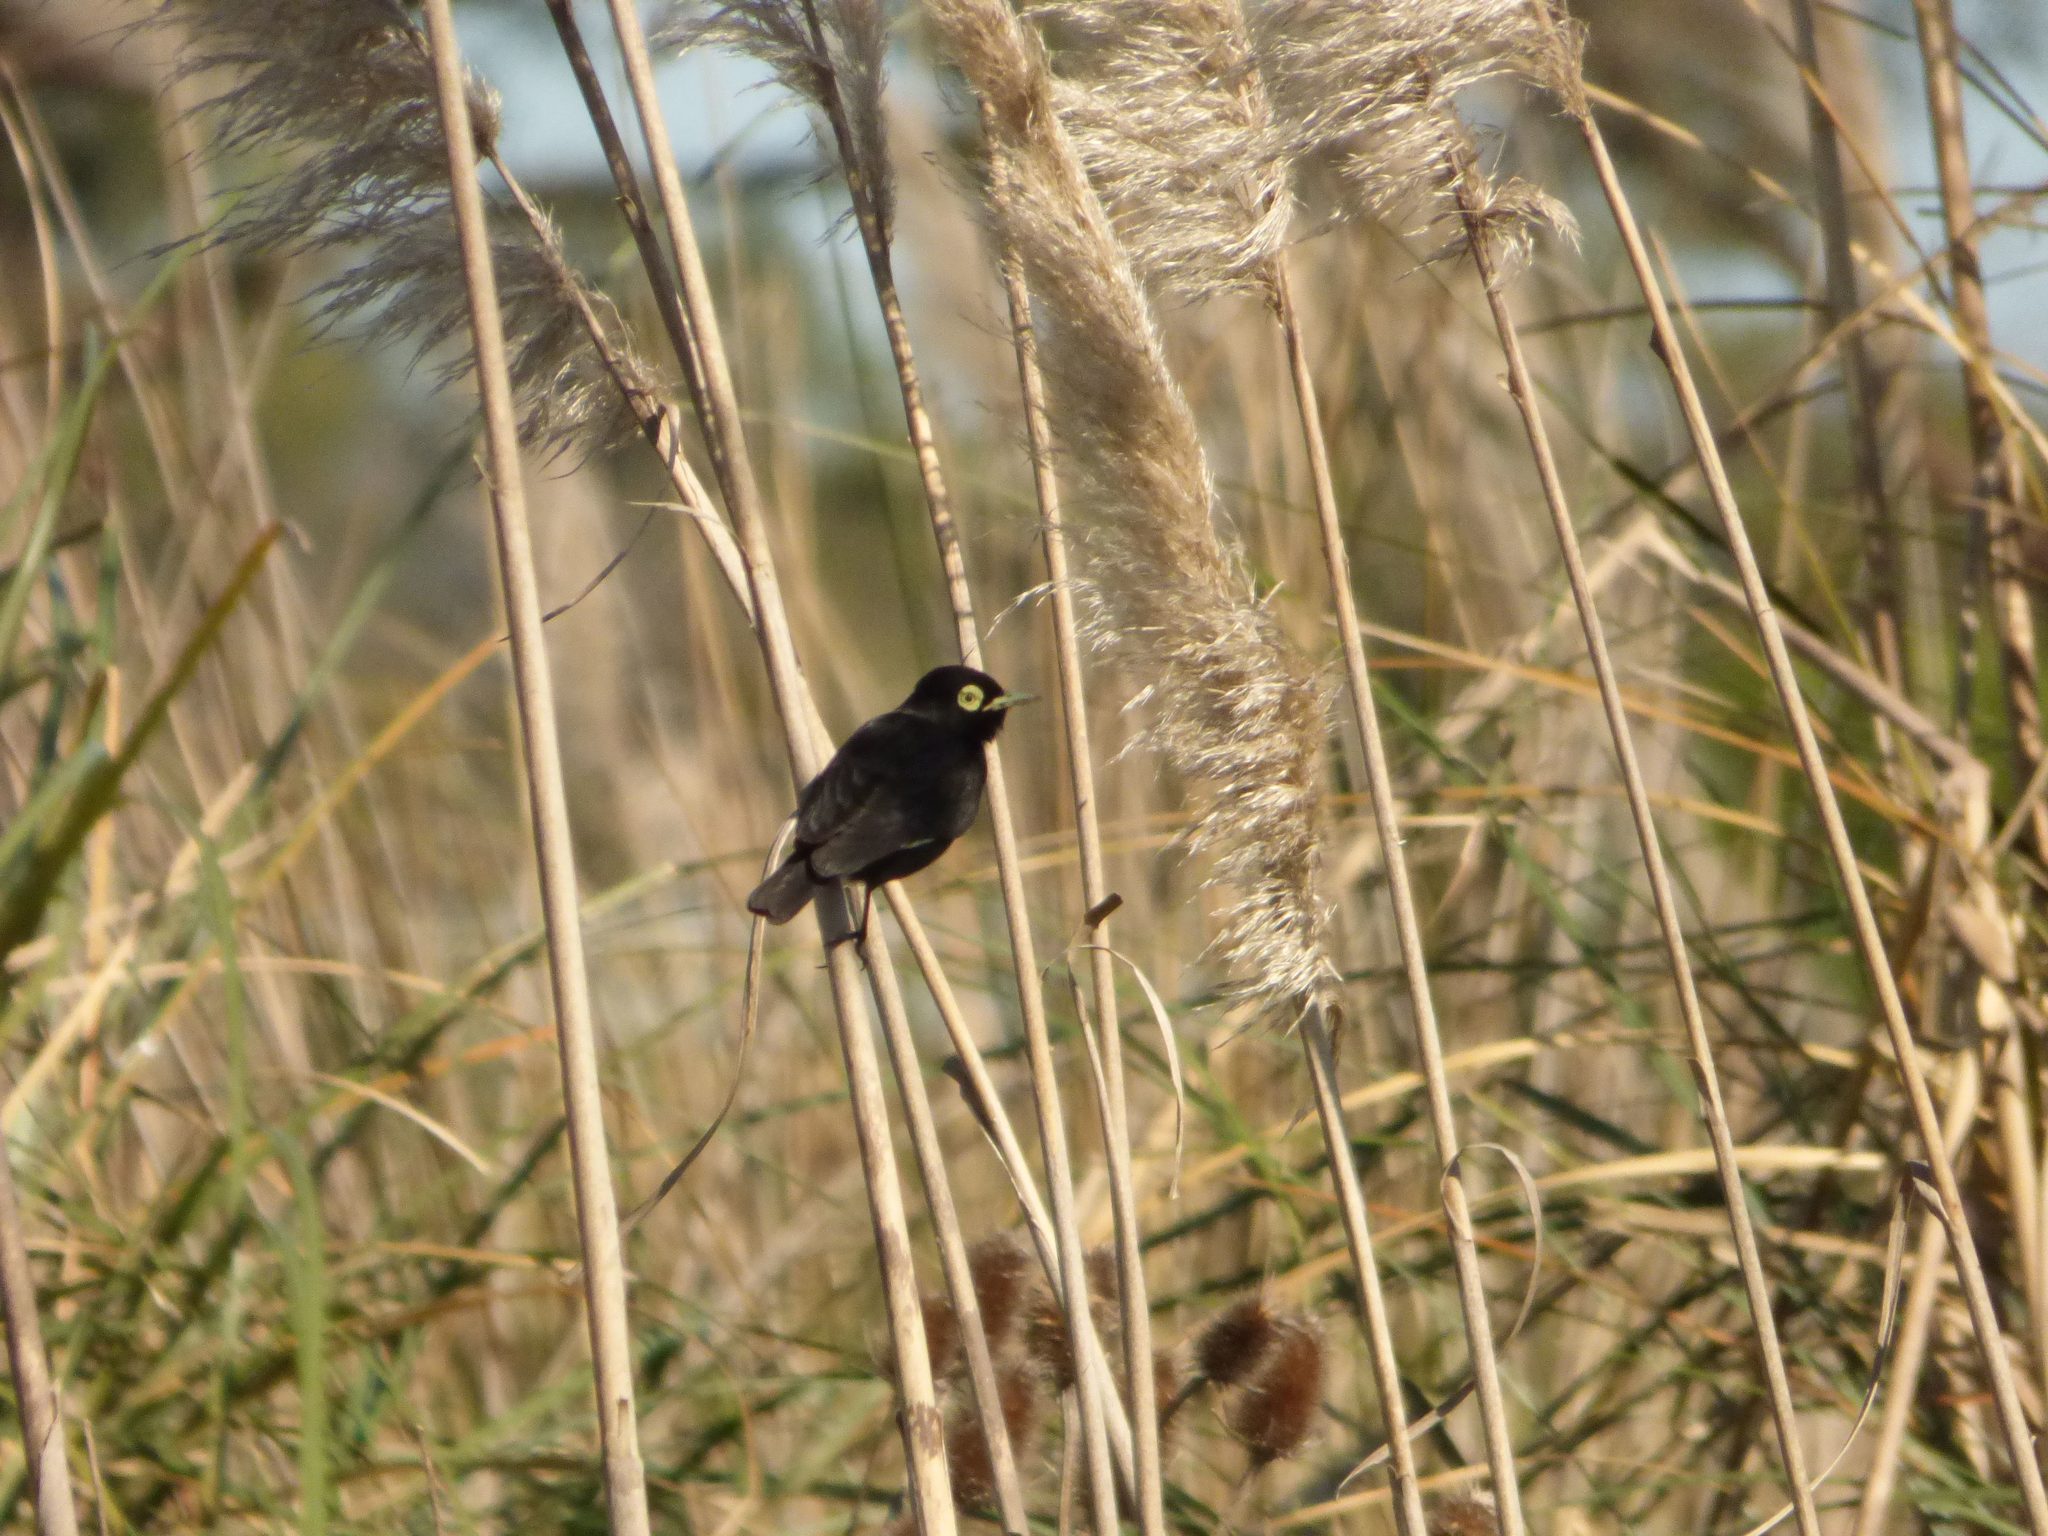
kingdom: Animalia
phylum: Chordata
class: Aves
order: Passeriformes
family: Tyrannidae
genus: Hymenops
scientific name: Hymenops perspicillatus
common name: Spectacled tyrant
